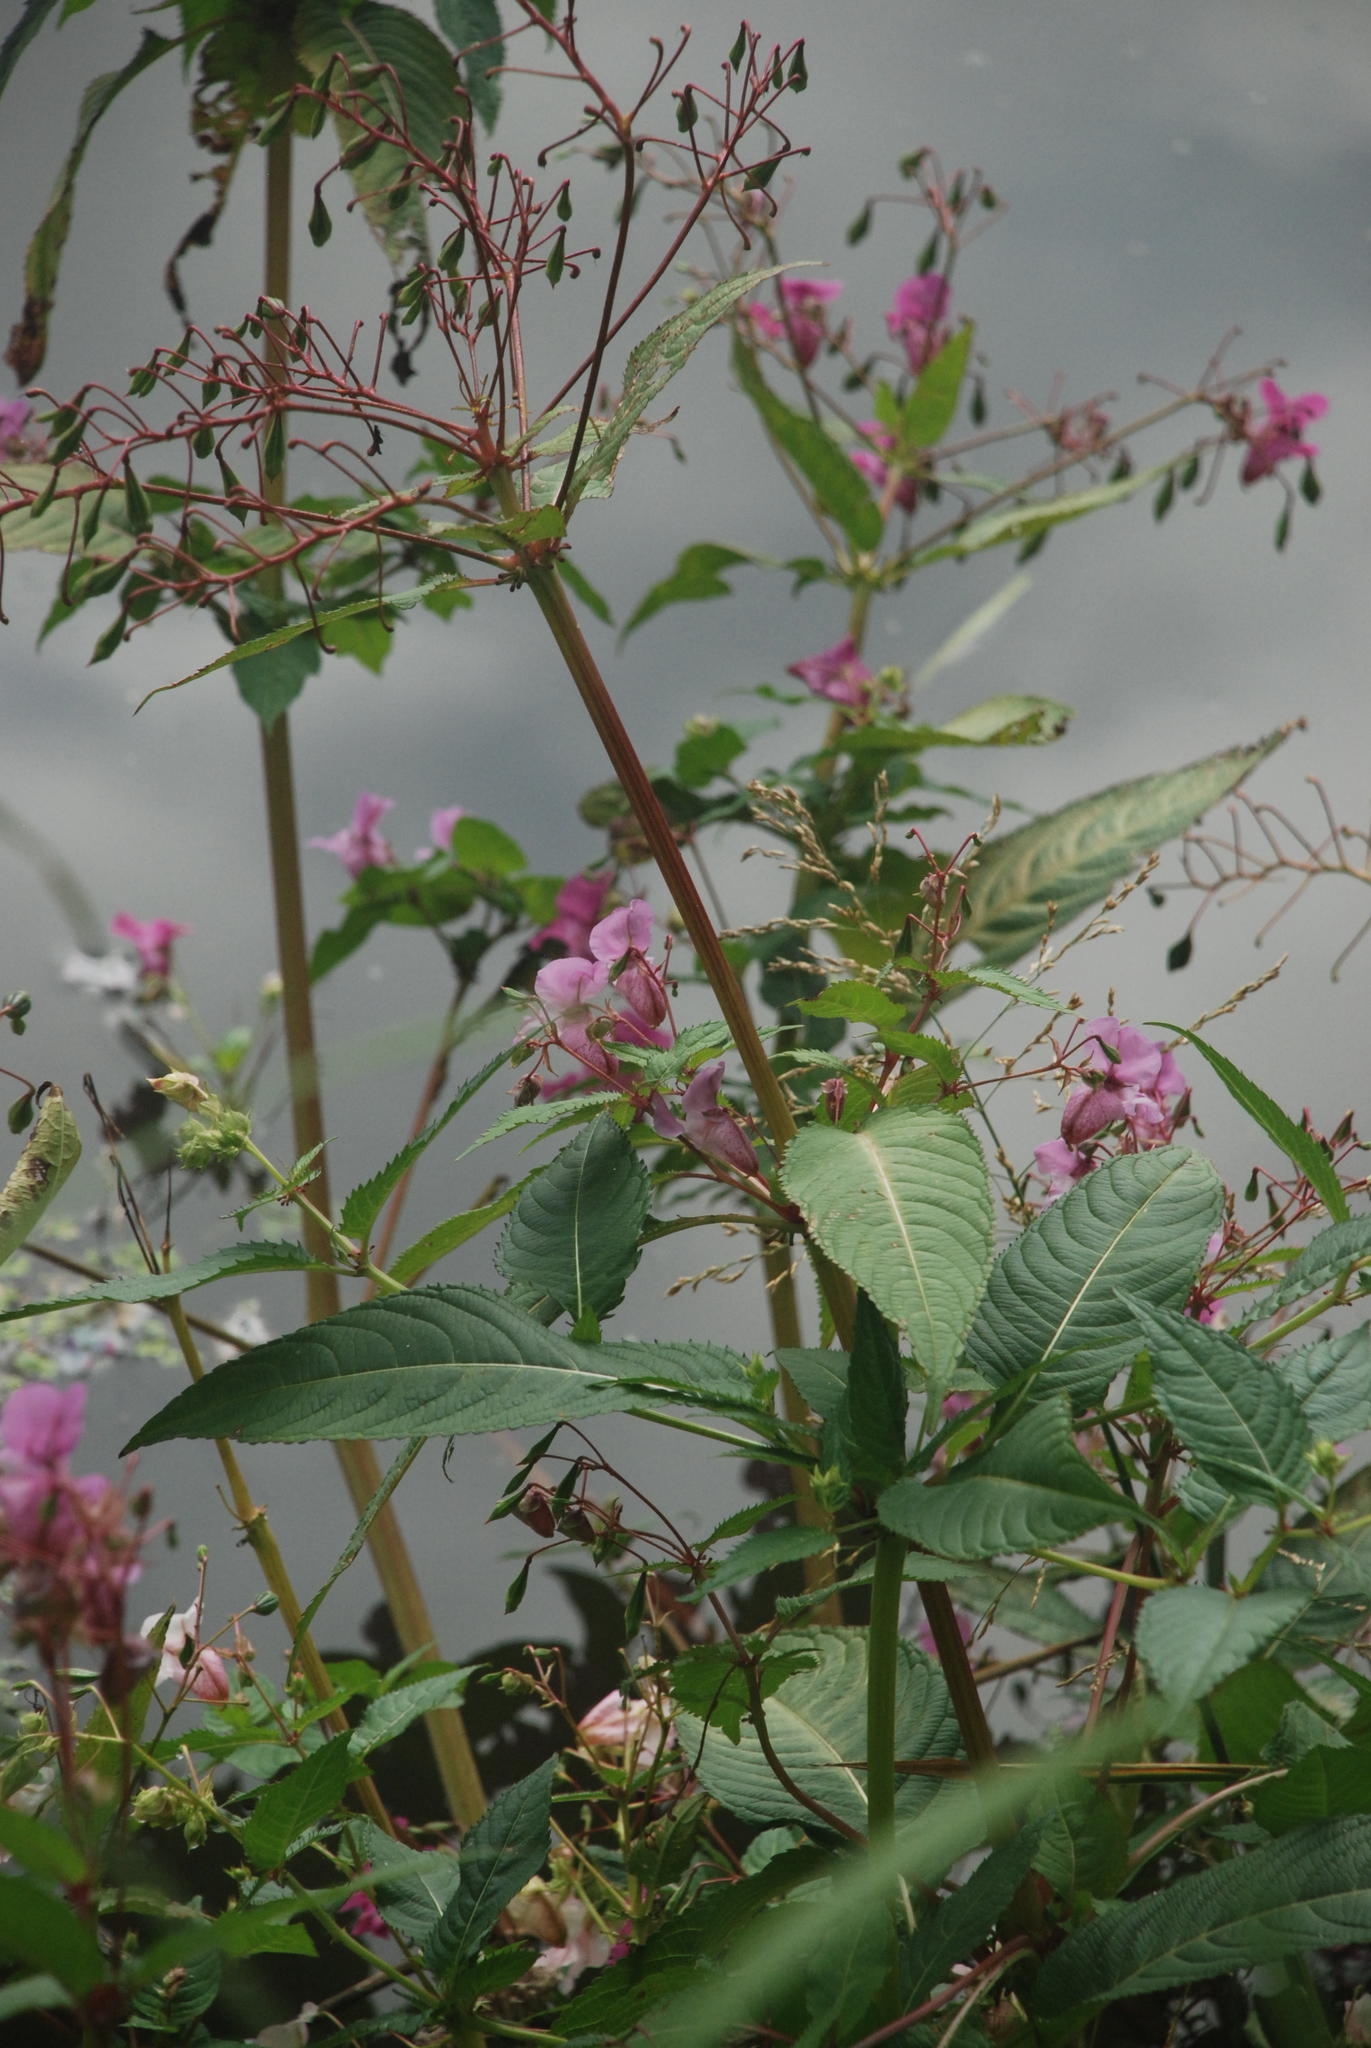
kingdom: Plantae
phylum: Tracheophyta
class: Magnoliopsida
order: Ericales
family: Balsaminaceae
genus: Impatiens
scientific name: Impatiens glandulifera
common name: Himalayan balsam
